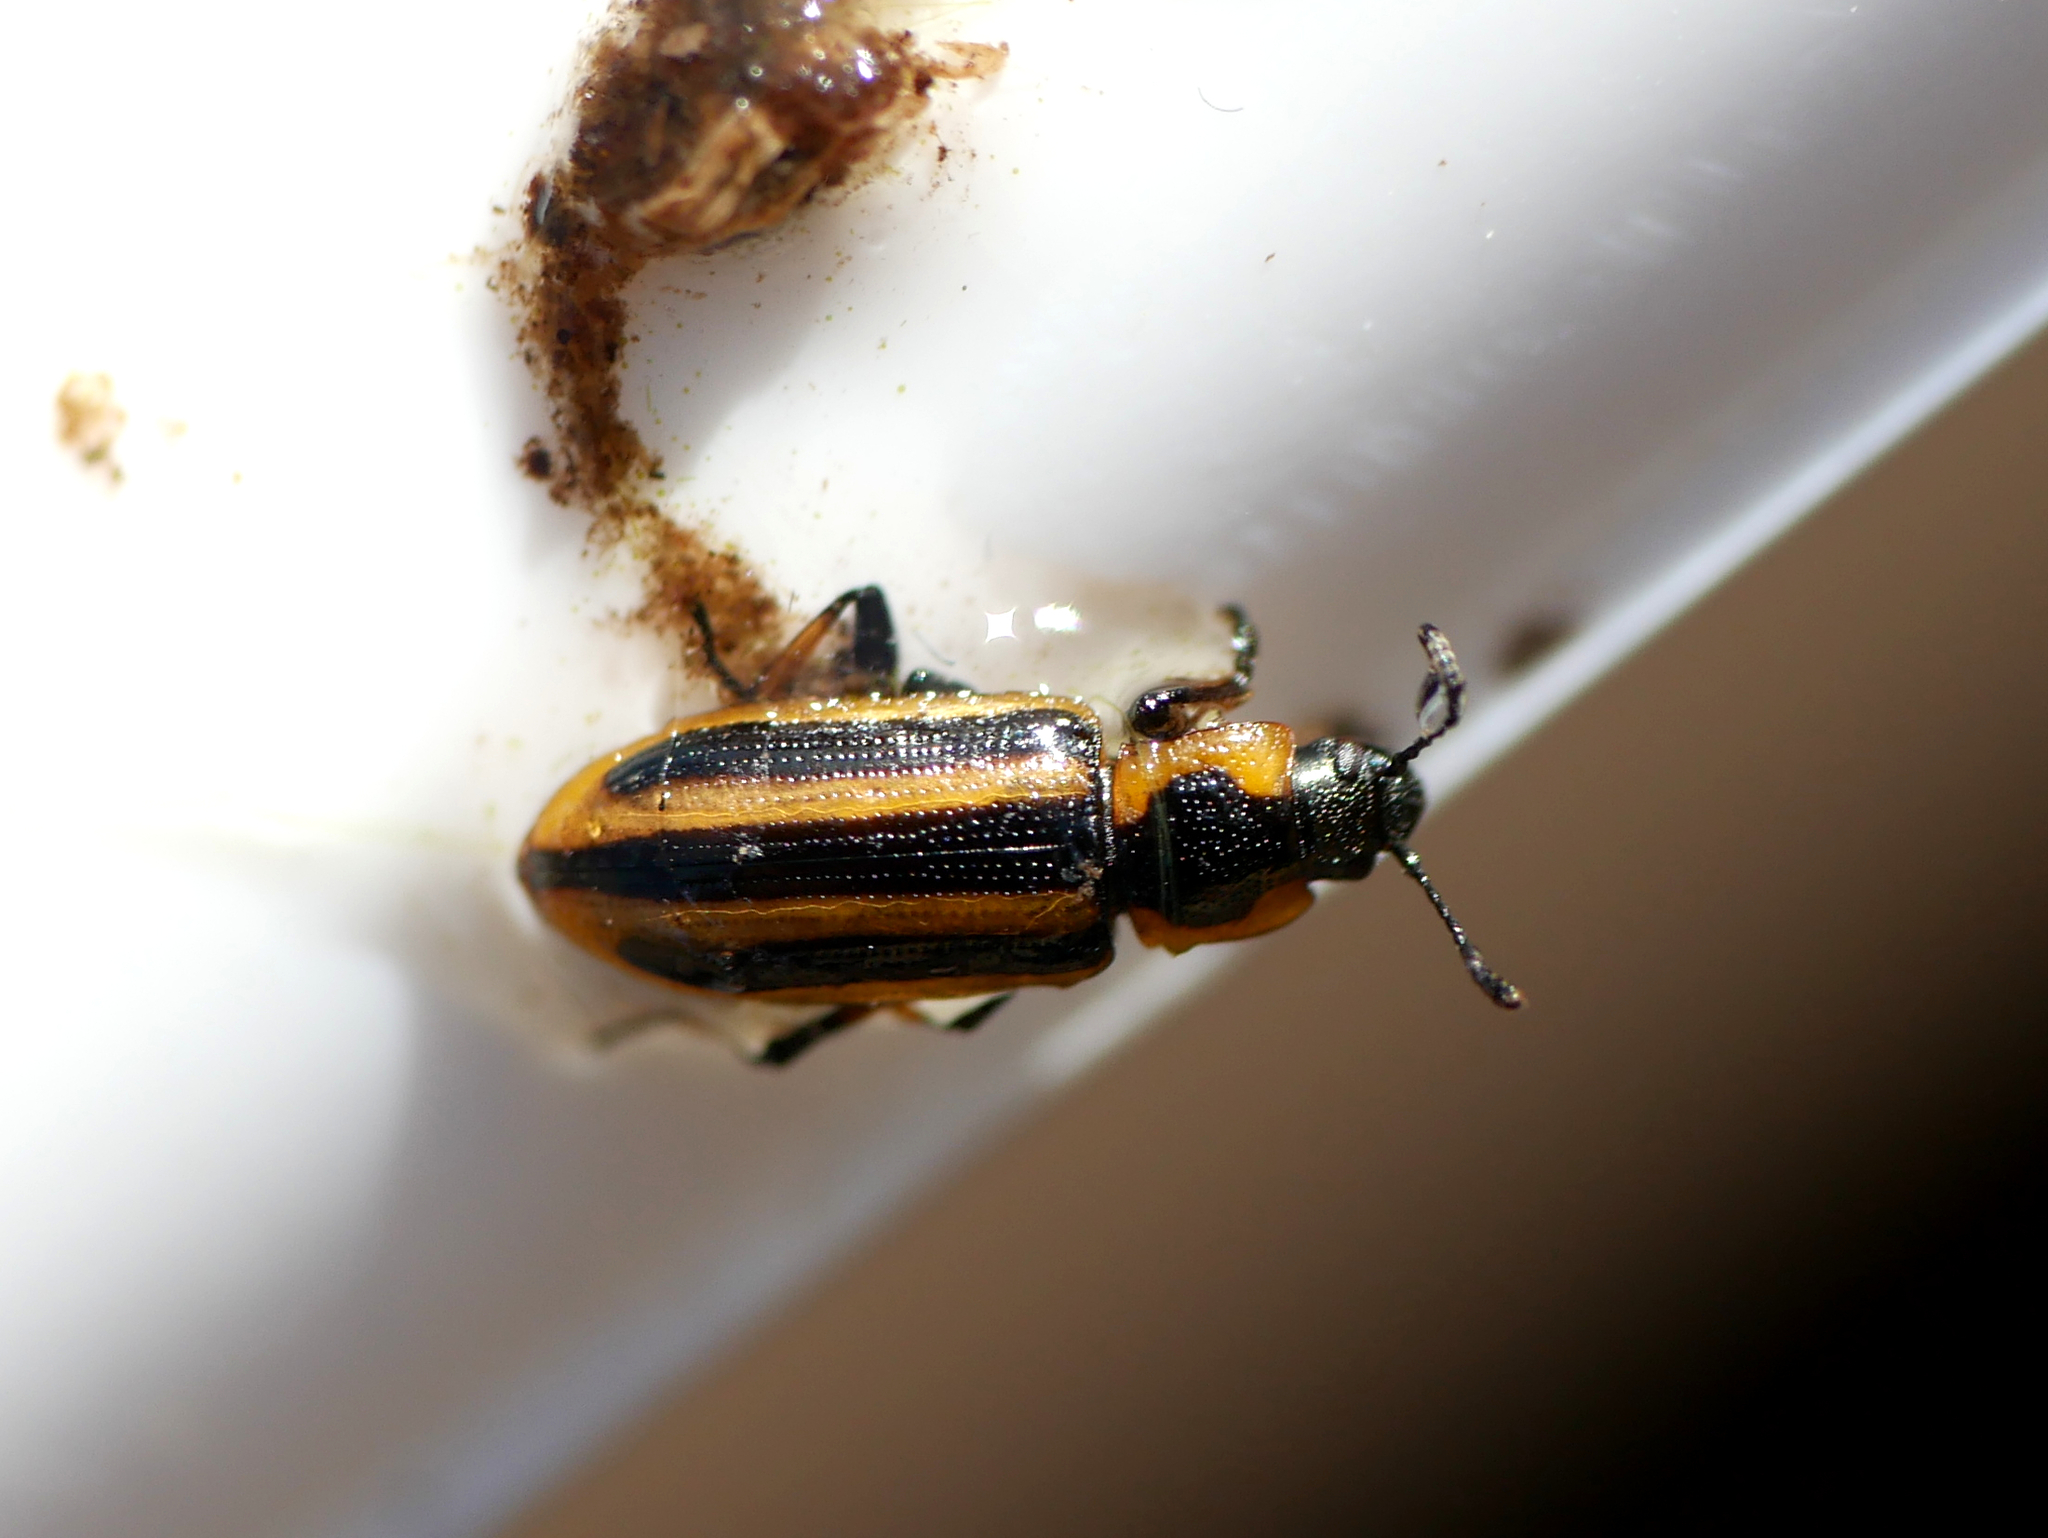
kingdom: Animalia
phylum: Arthropoda
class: Insecta
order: Coleoptera
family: Chrysomelidae
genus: Prasocuris
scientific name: Prasocuris phellandrii
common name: Leaf beetle
